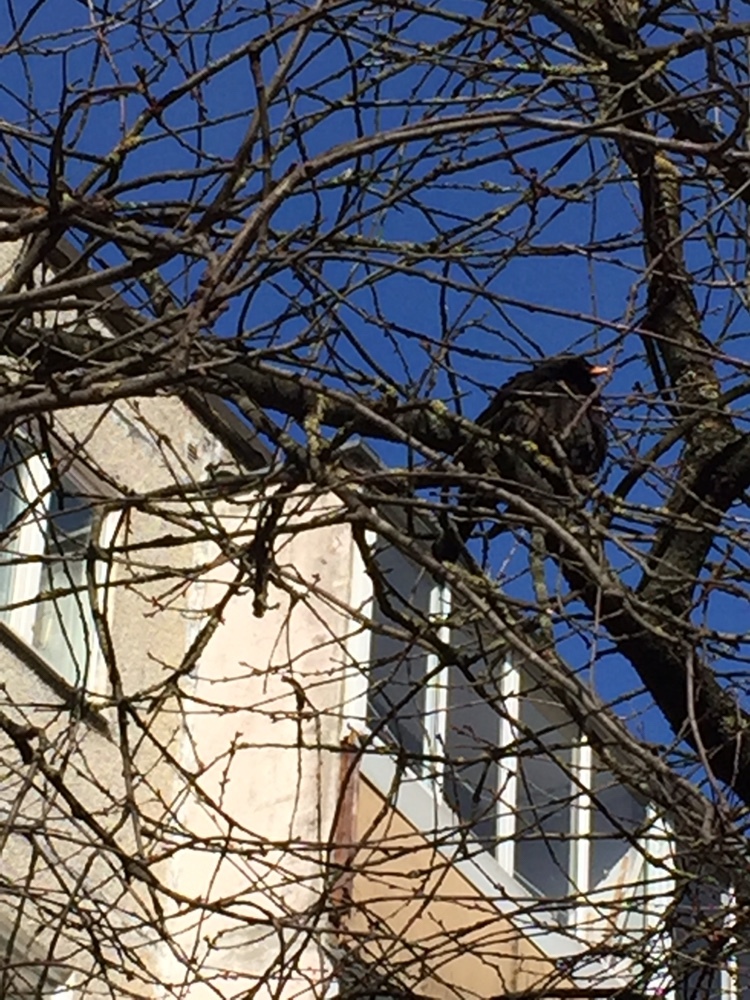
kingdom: Animalia
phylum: Chordata
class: Aves
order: Passeriformes
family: Turdidae
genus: Turdus
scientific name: Turdus merula
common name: Common blackbird
